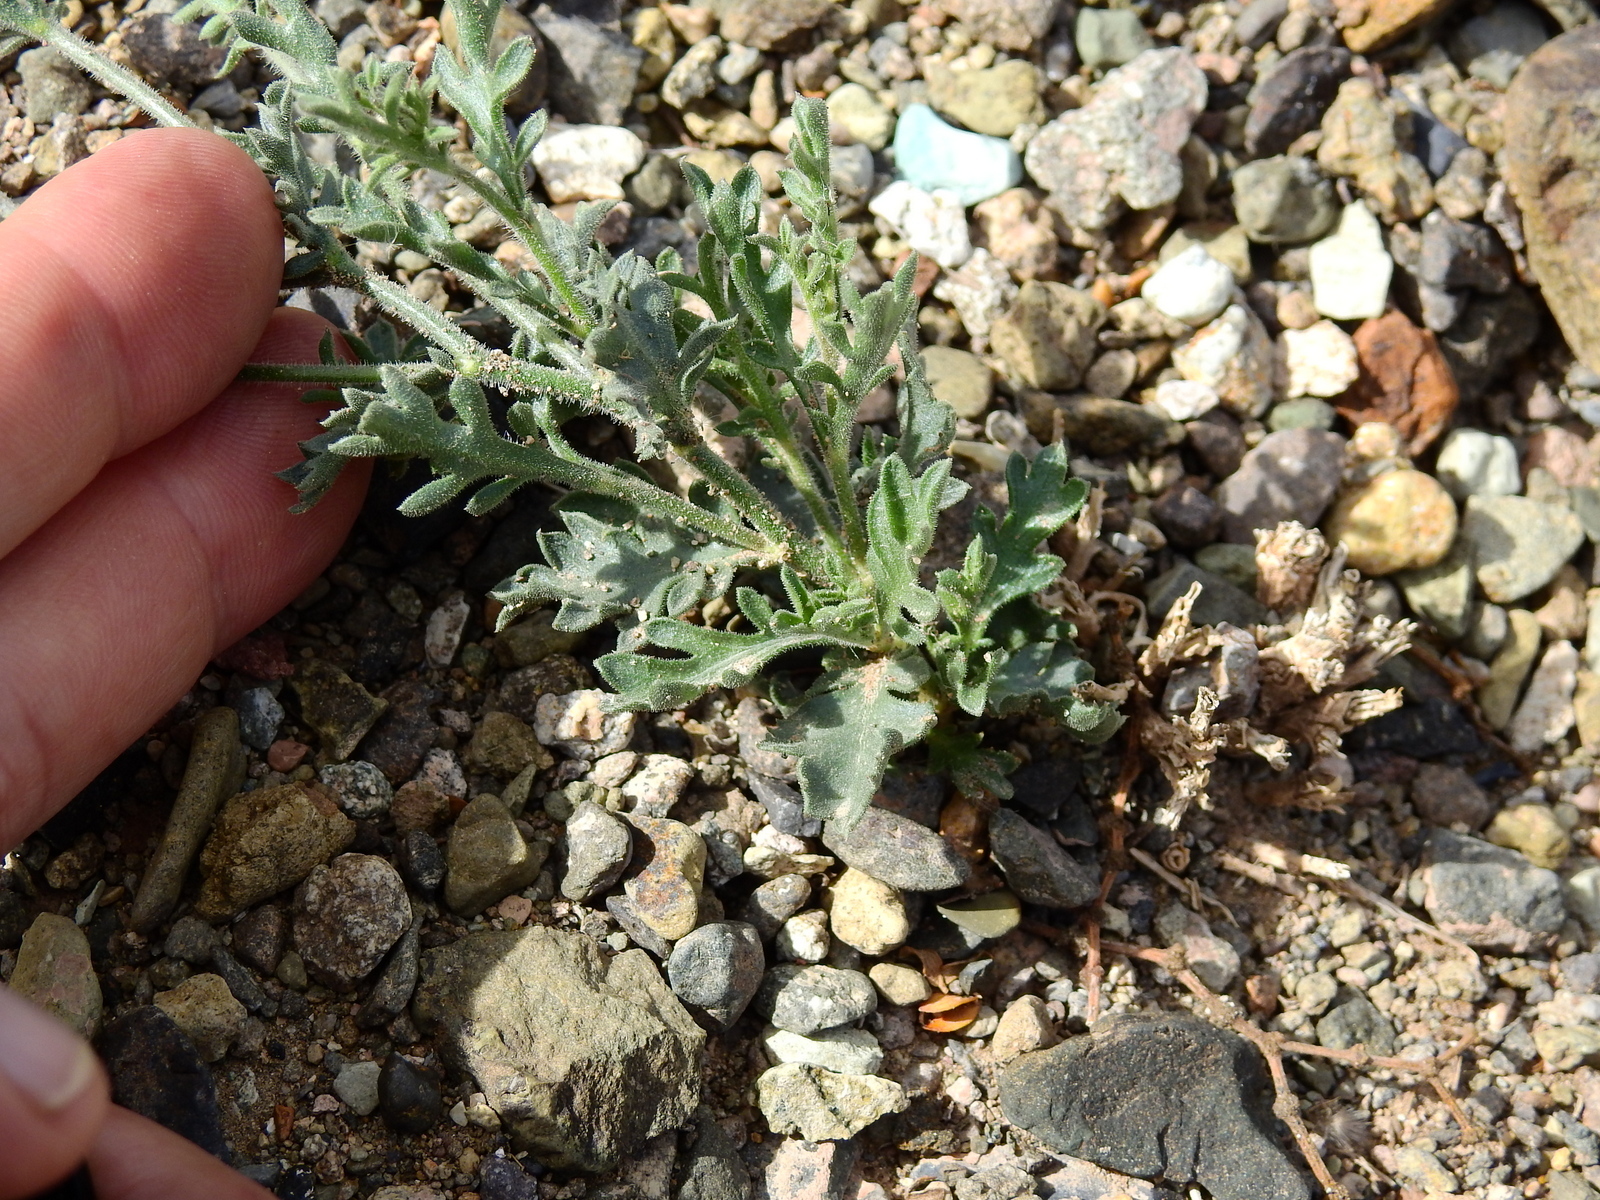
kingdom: Plantae
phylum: Tracheophyta
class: Magnoliopsida
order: Ericales
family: Polemoniaceae
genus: Giliastrum
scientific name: Giliastrum foetidum
